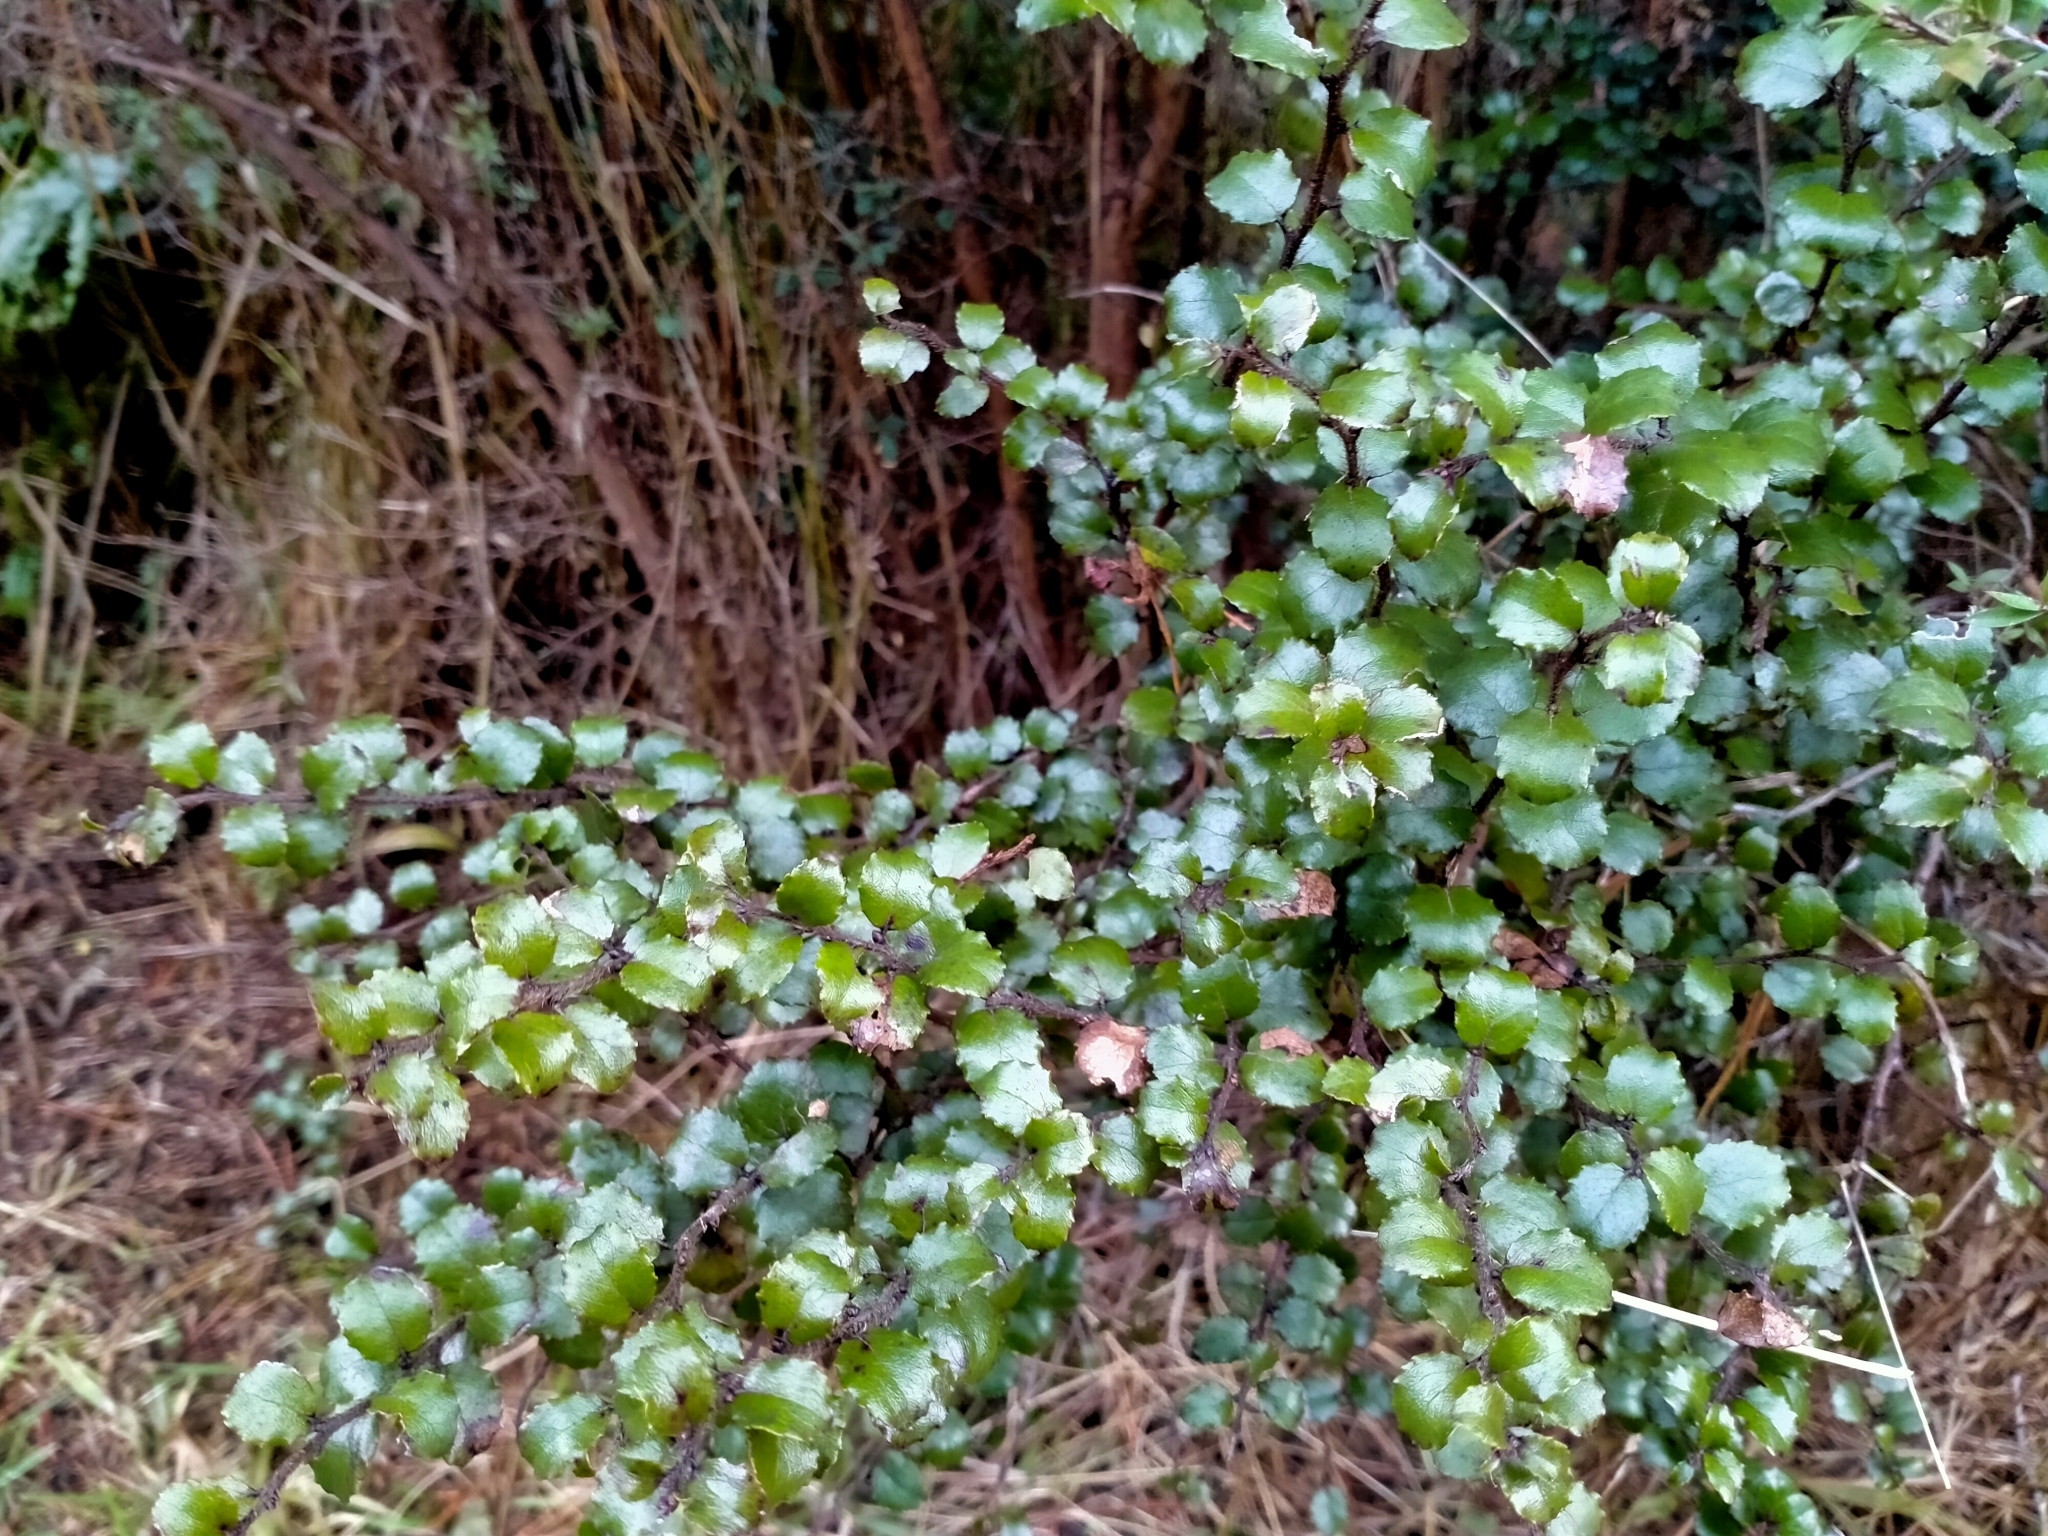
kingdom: Plantae
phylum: Tracheophyta
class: Magnoliopsida
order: Ericales
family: Ericaceae
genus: Gaultheria
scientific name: Gaultheria antipoda
